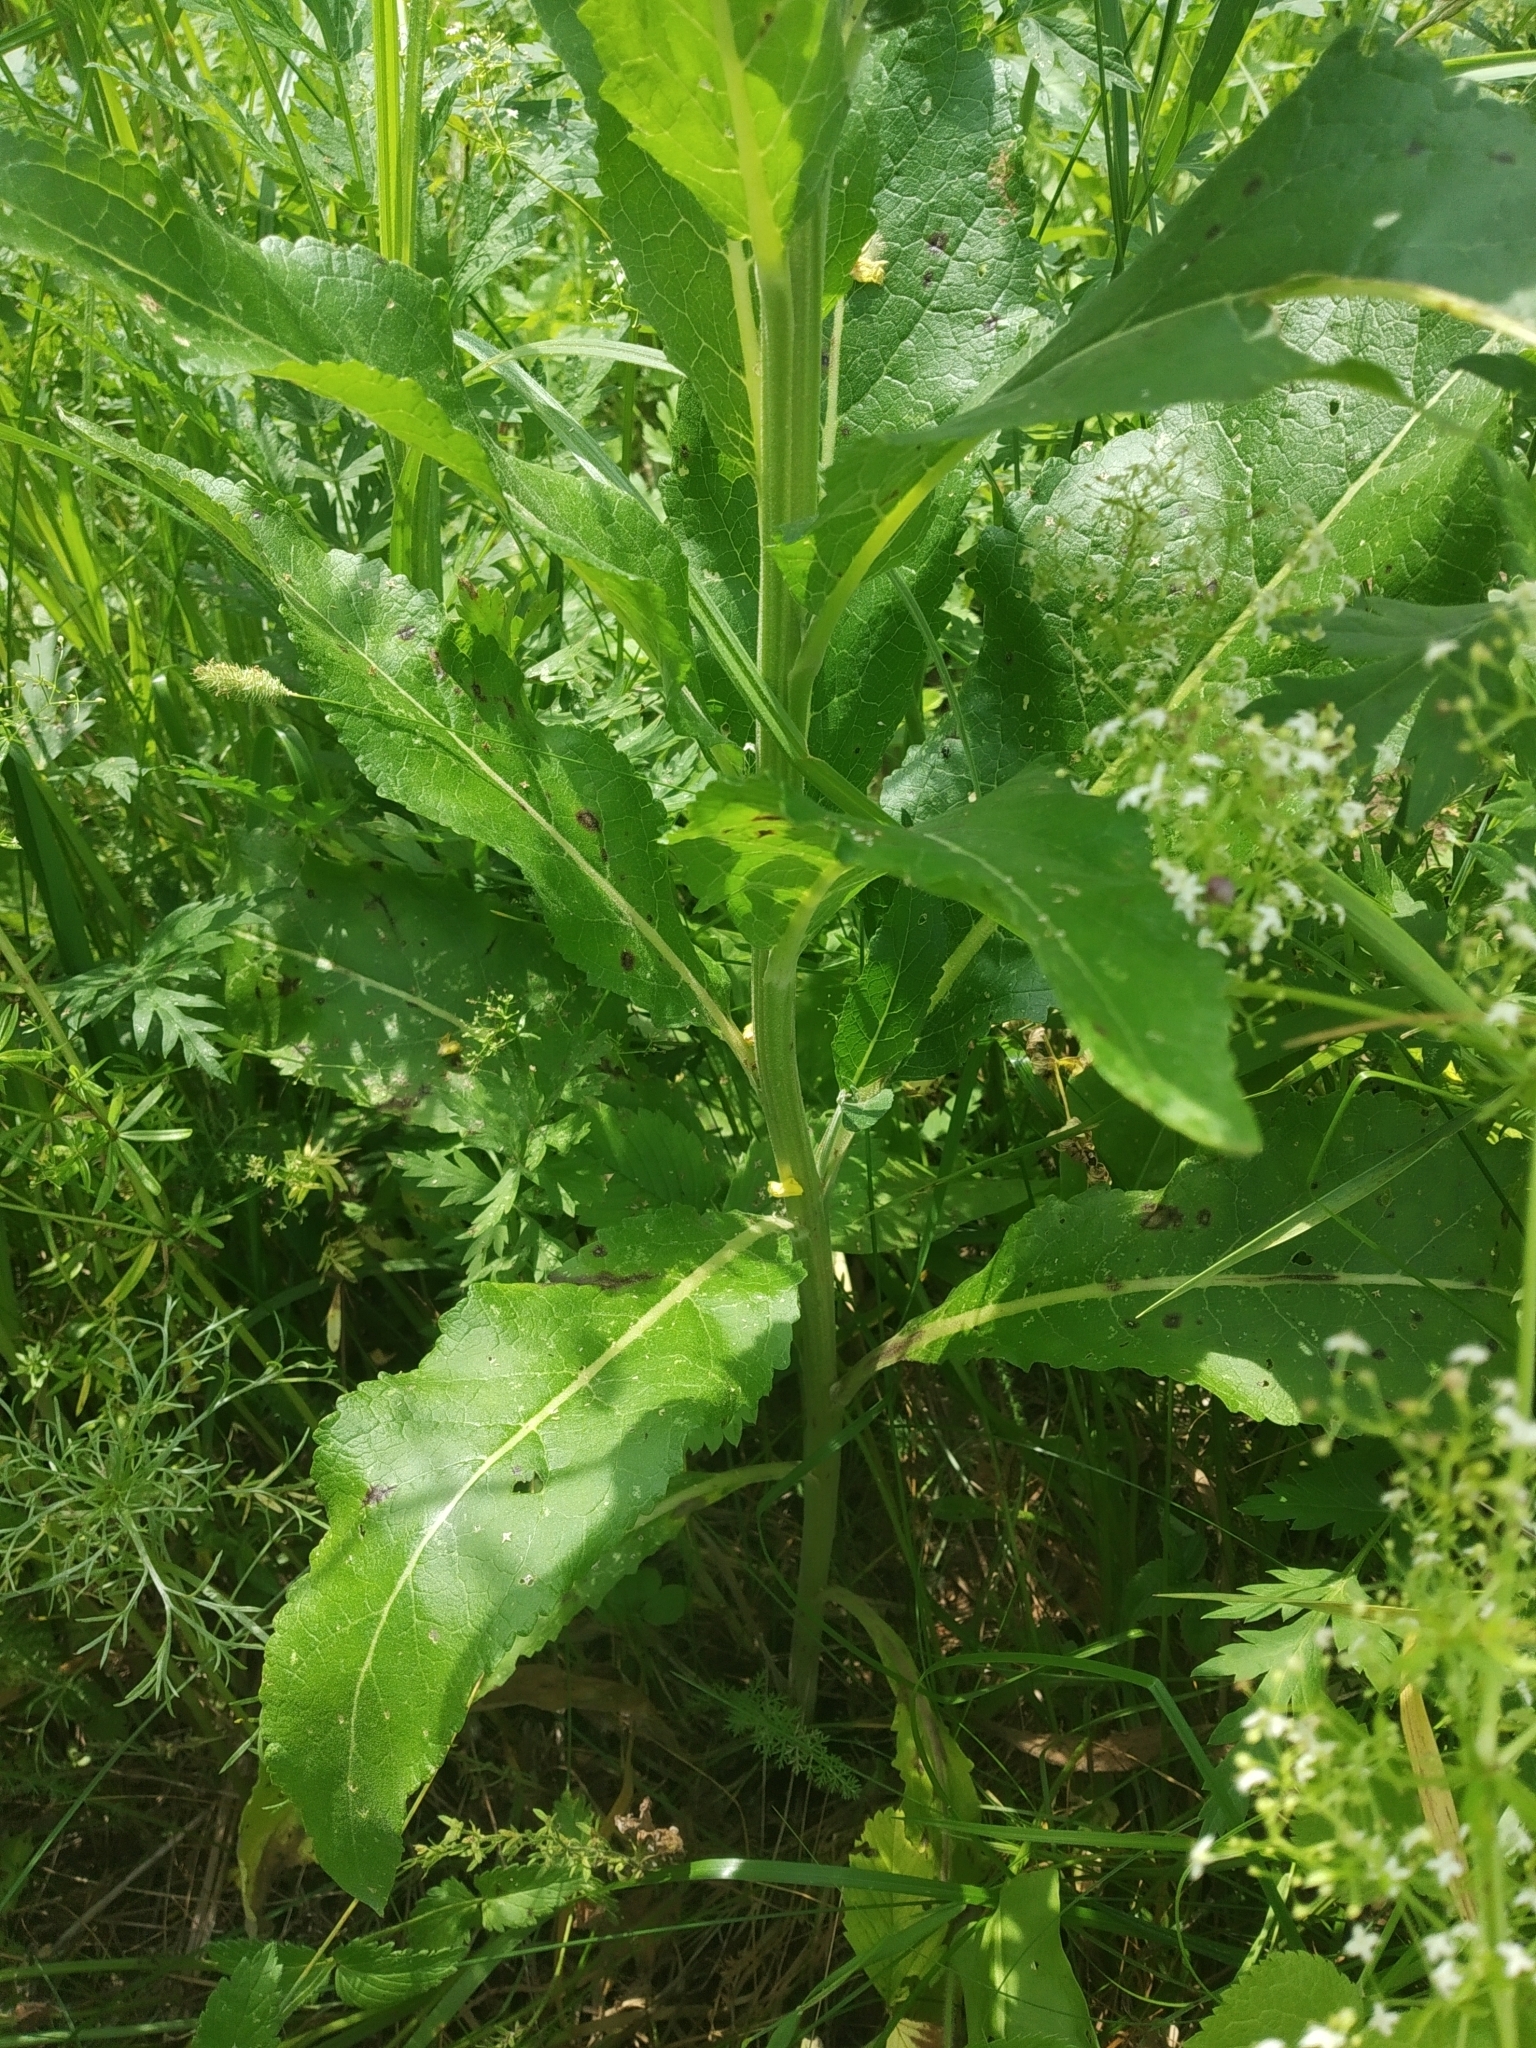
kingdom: Plantae
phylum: Tracheophyta
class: Magnoliopsida
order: Lamiales
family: Scrophulariaceae
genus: Verbascum
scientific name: Verbascum lychnitis
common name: White mullein
